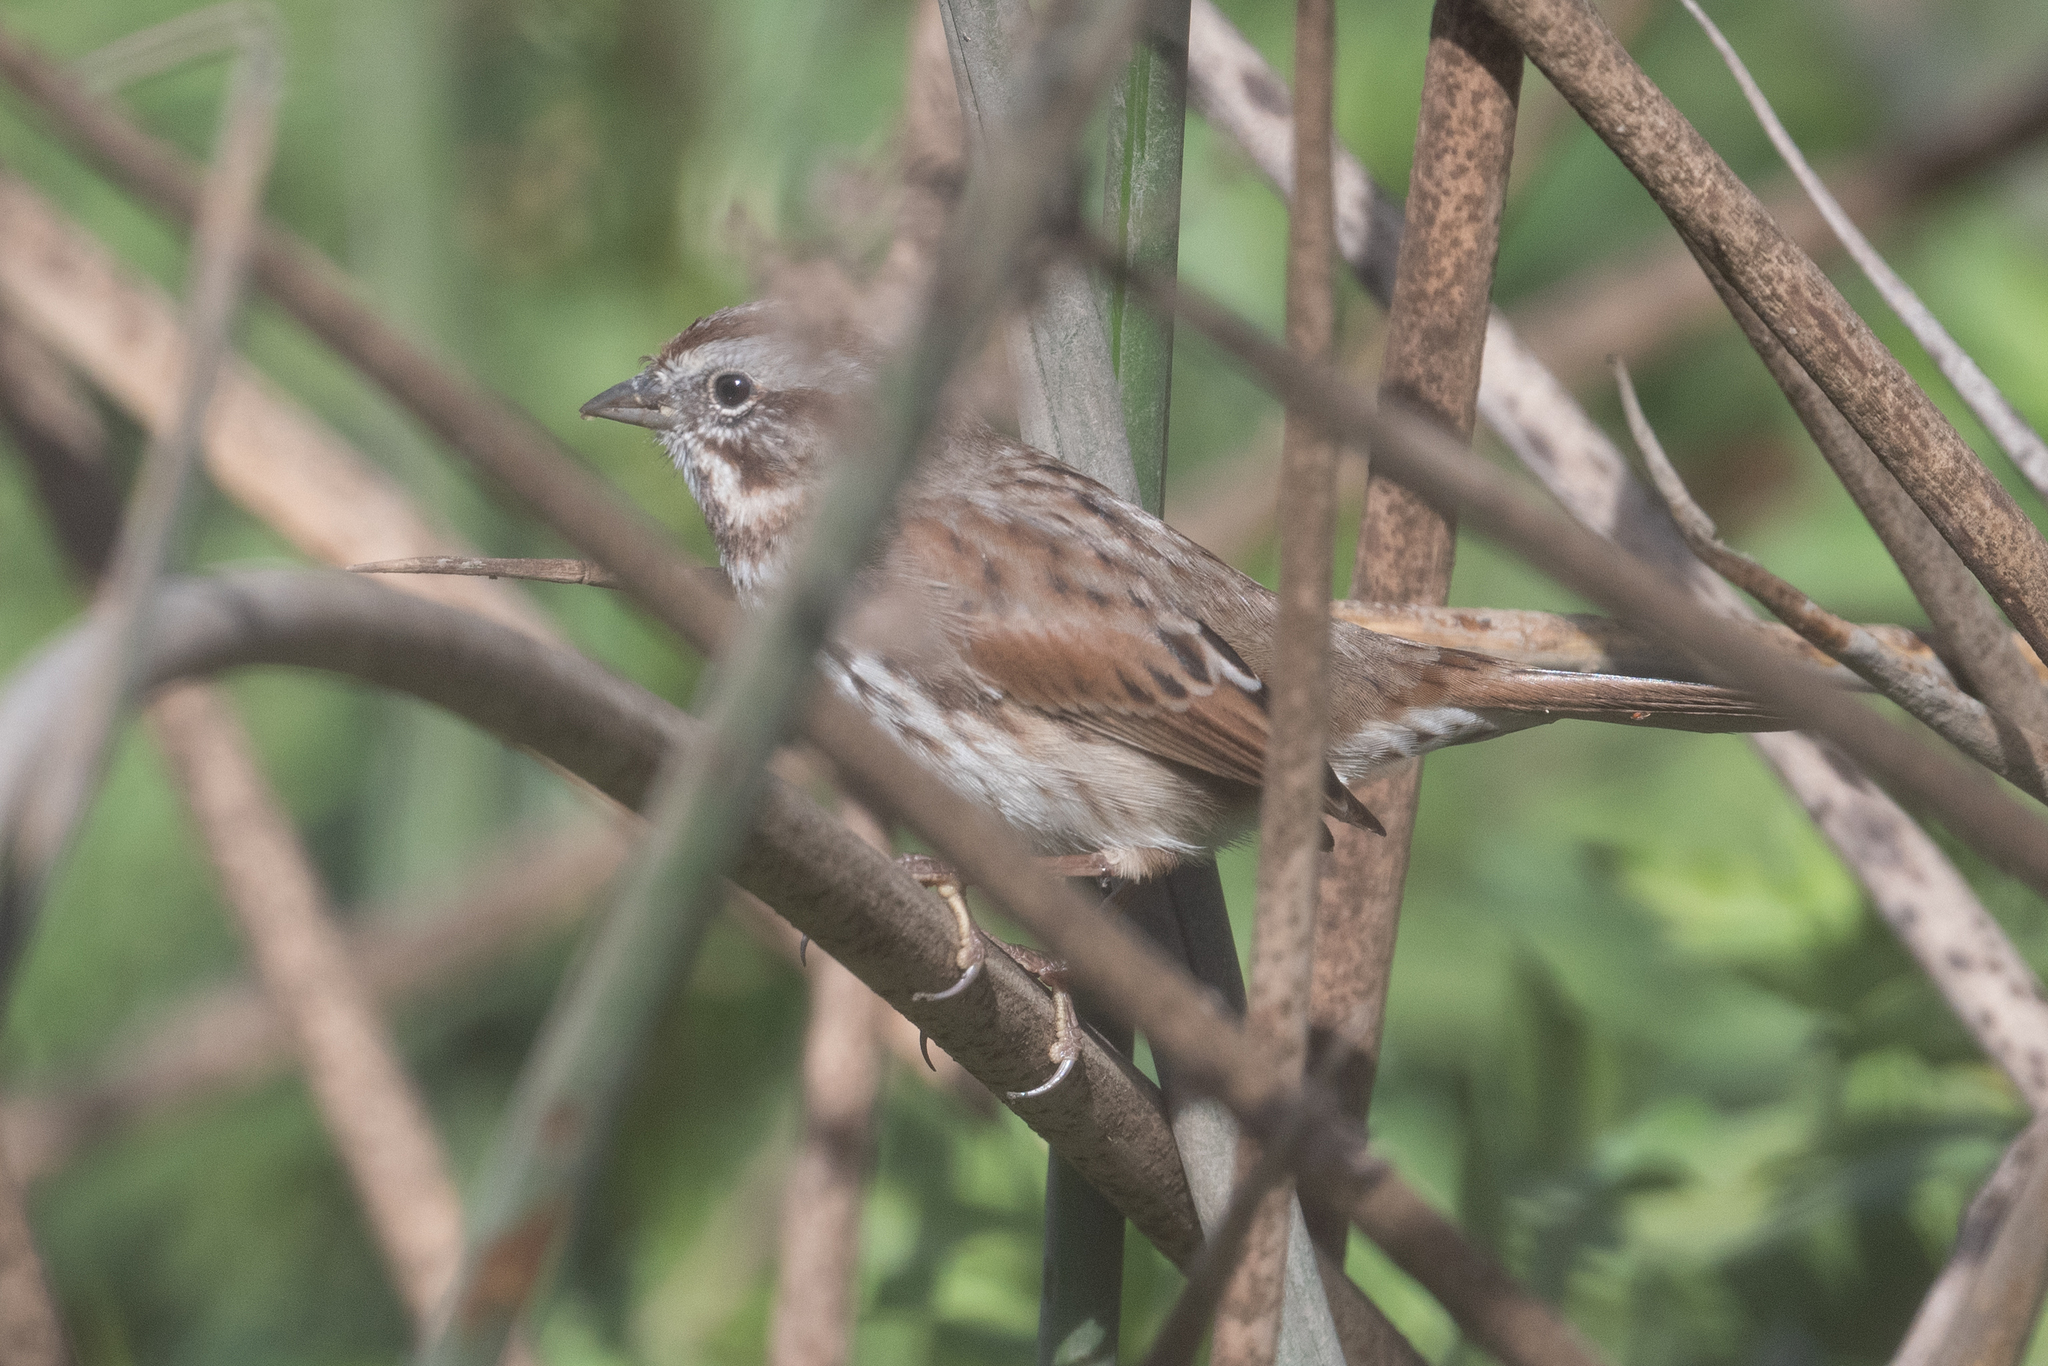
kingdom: Animalia
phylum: Chordata
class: Aves
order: Passeriformes
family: Passerellidae
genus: Melospiza
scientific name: Melospiza melodia
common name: Song sparrow
